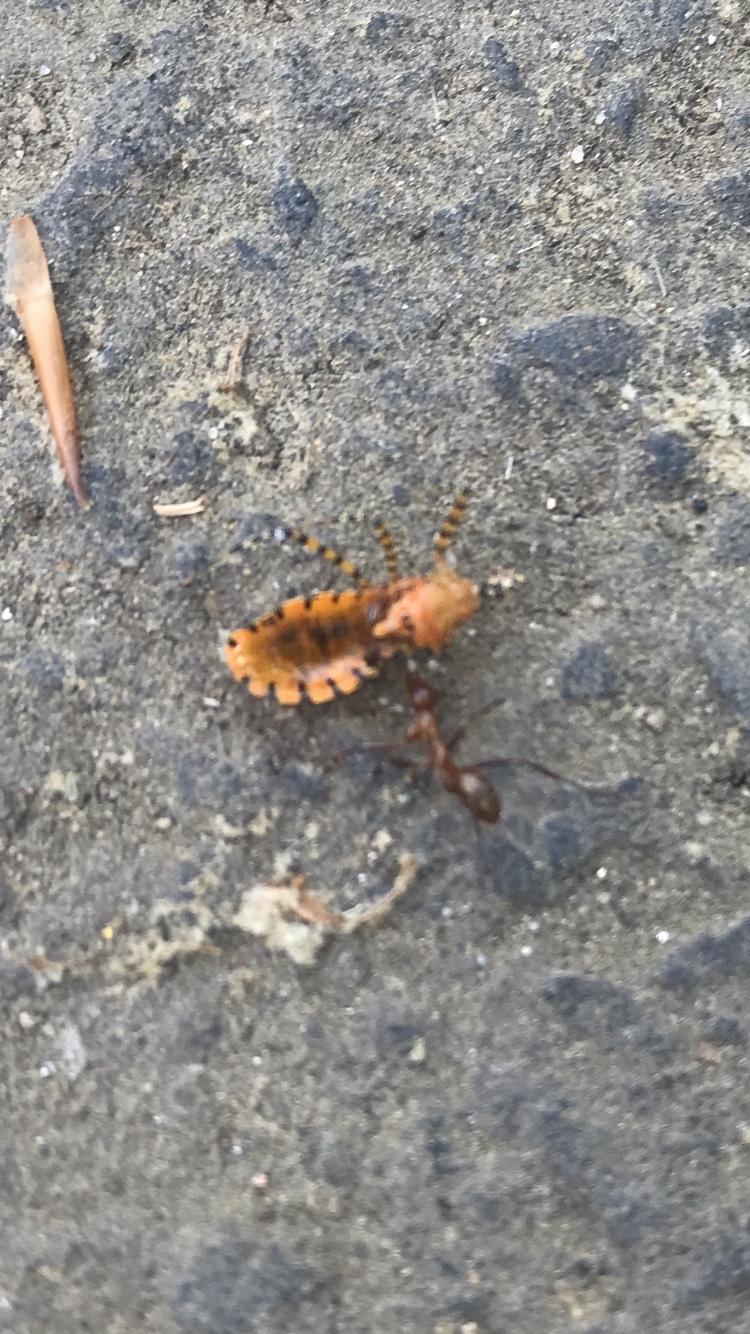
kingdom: Animalia
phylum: Arthropoda
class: Insecta
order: Hemiptera
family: Reduviidae
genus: Pselliopus
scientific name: Pselliopus barberi
